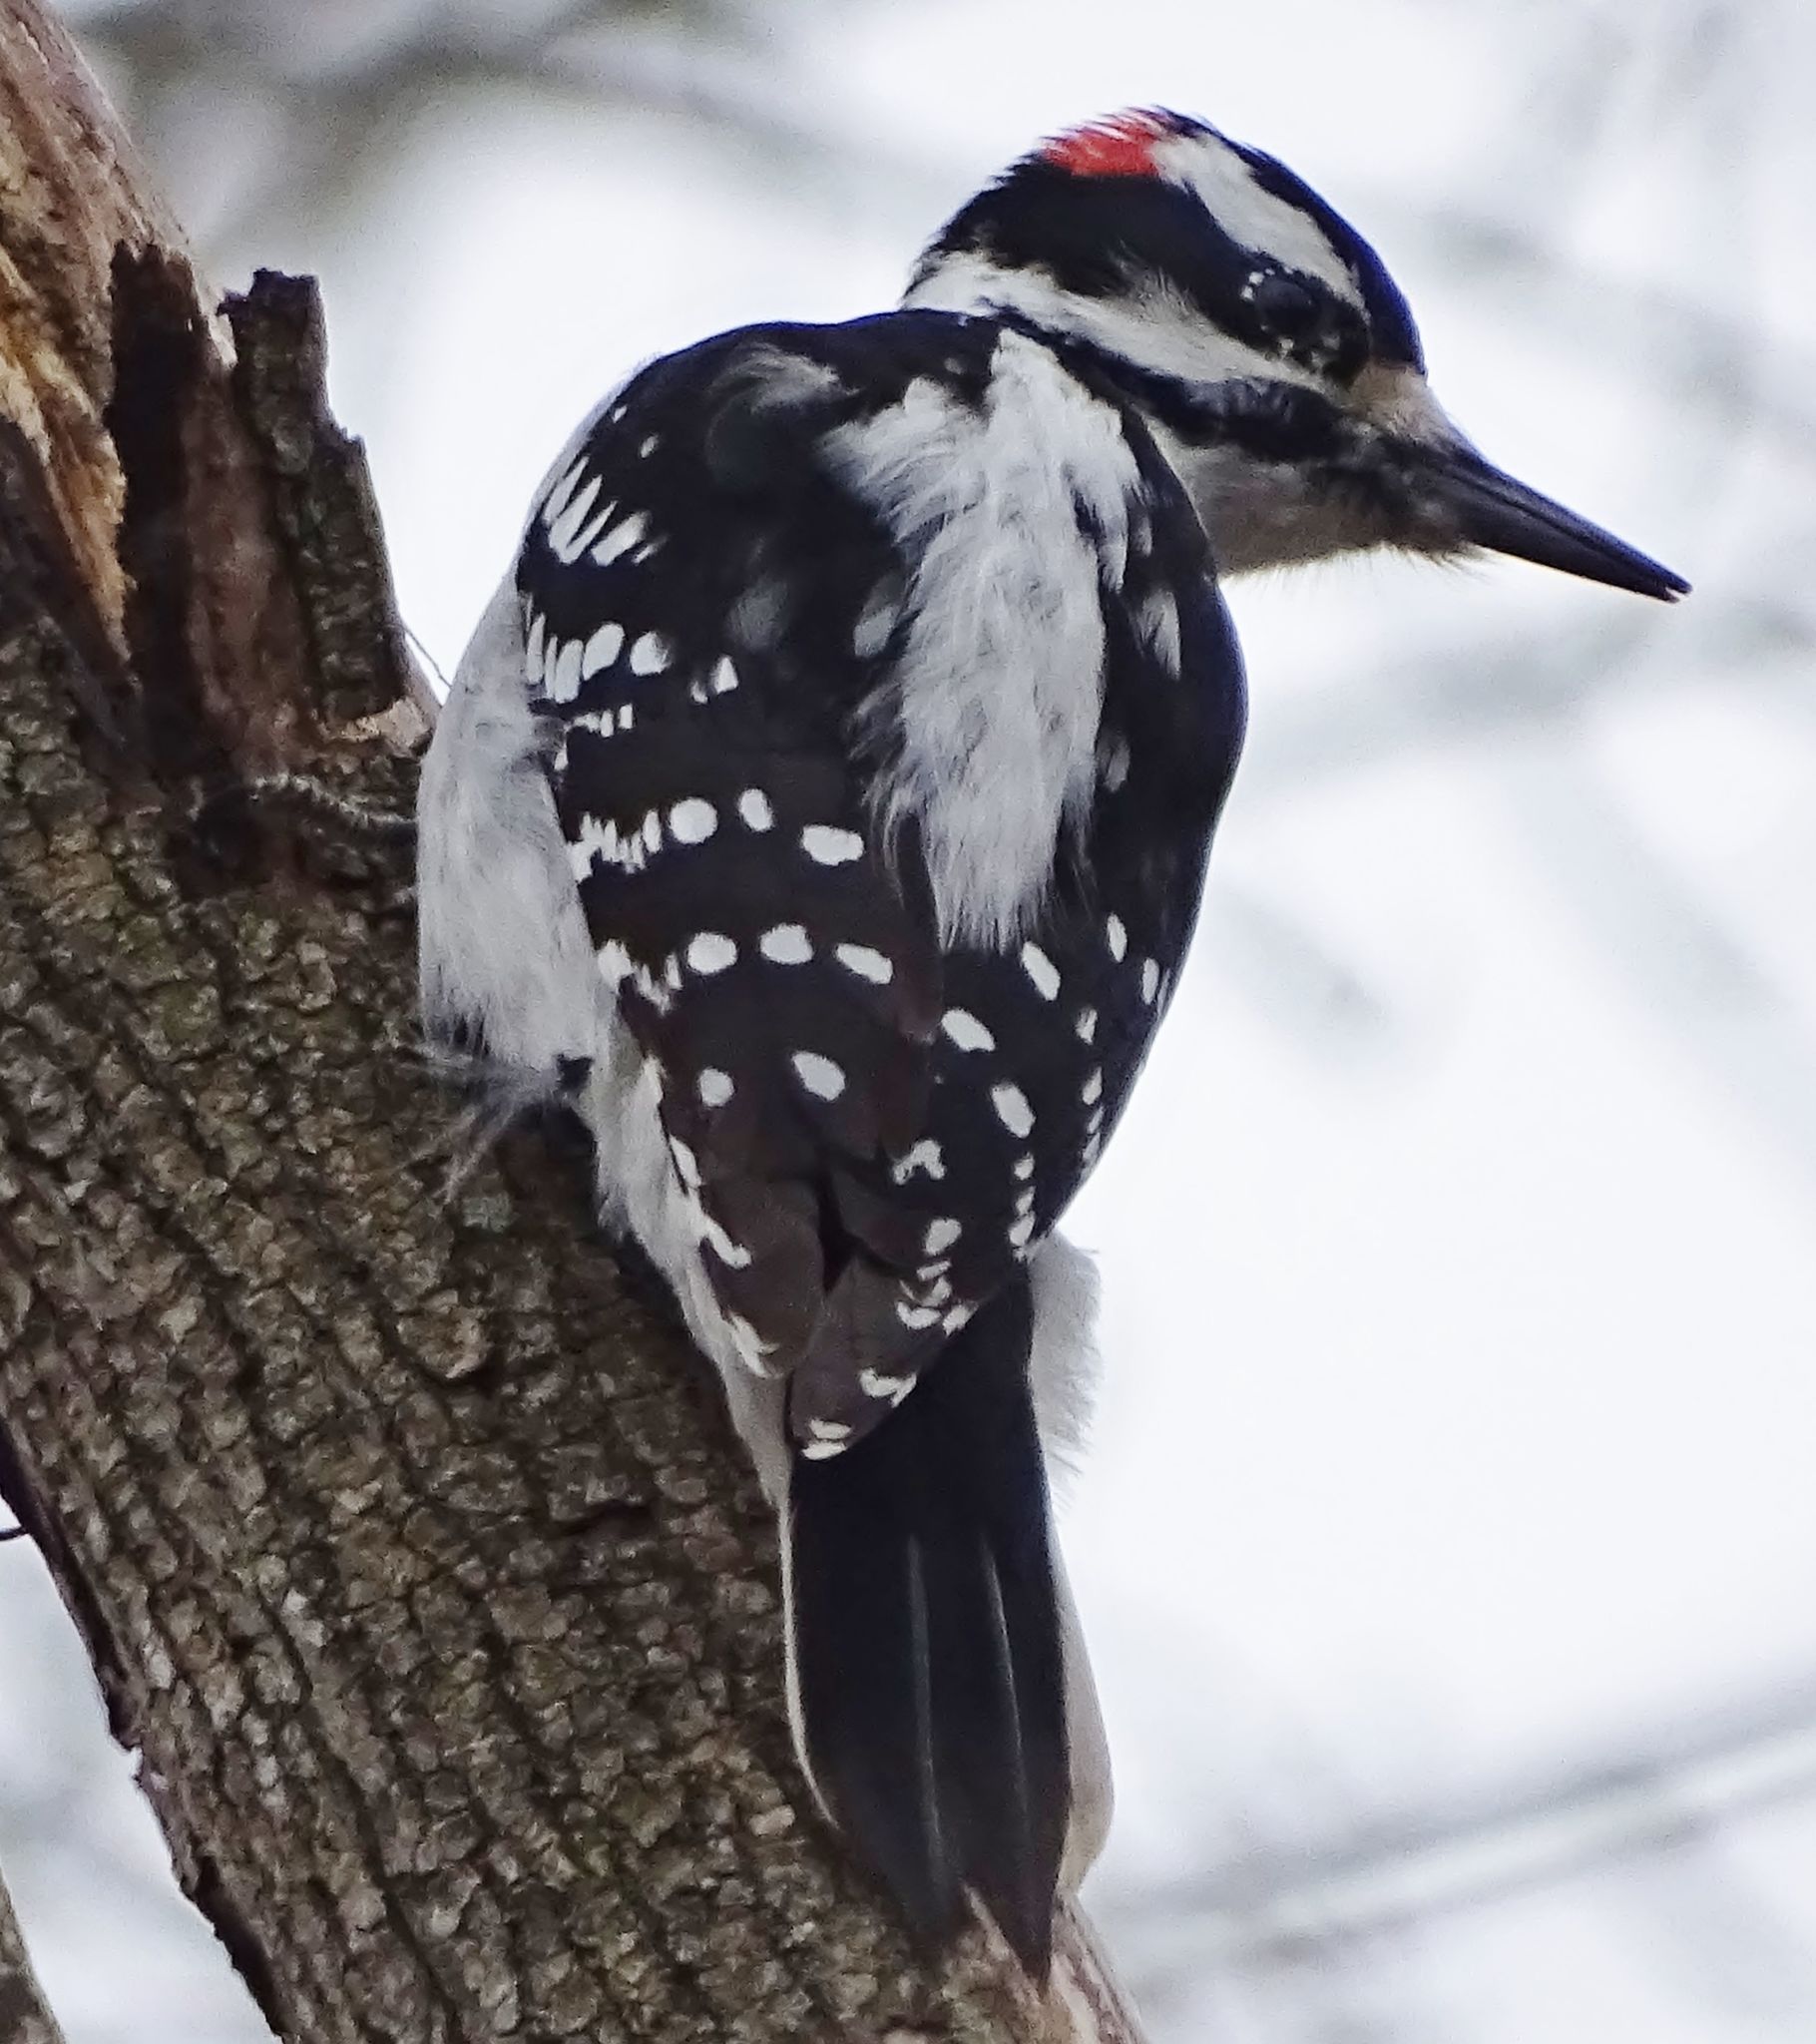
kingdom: Animalia
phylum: Chordata
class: Aves
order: Piciformes
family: Picidae
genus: Leuconotopicus
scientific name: Leuconotopicus villosus
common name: Hairy woodpecker
